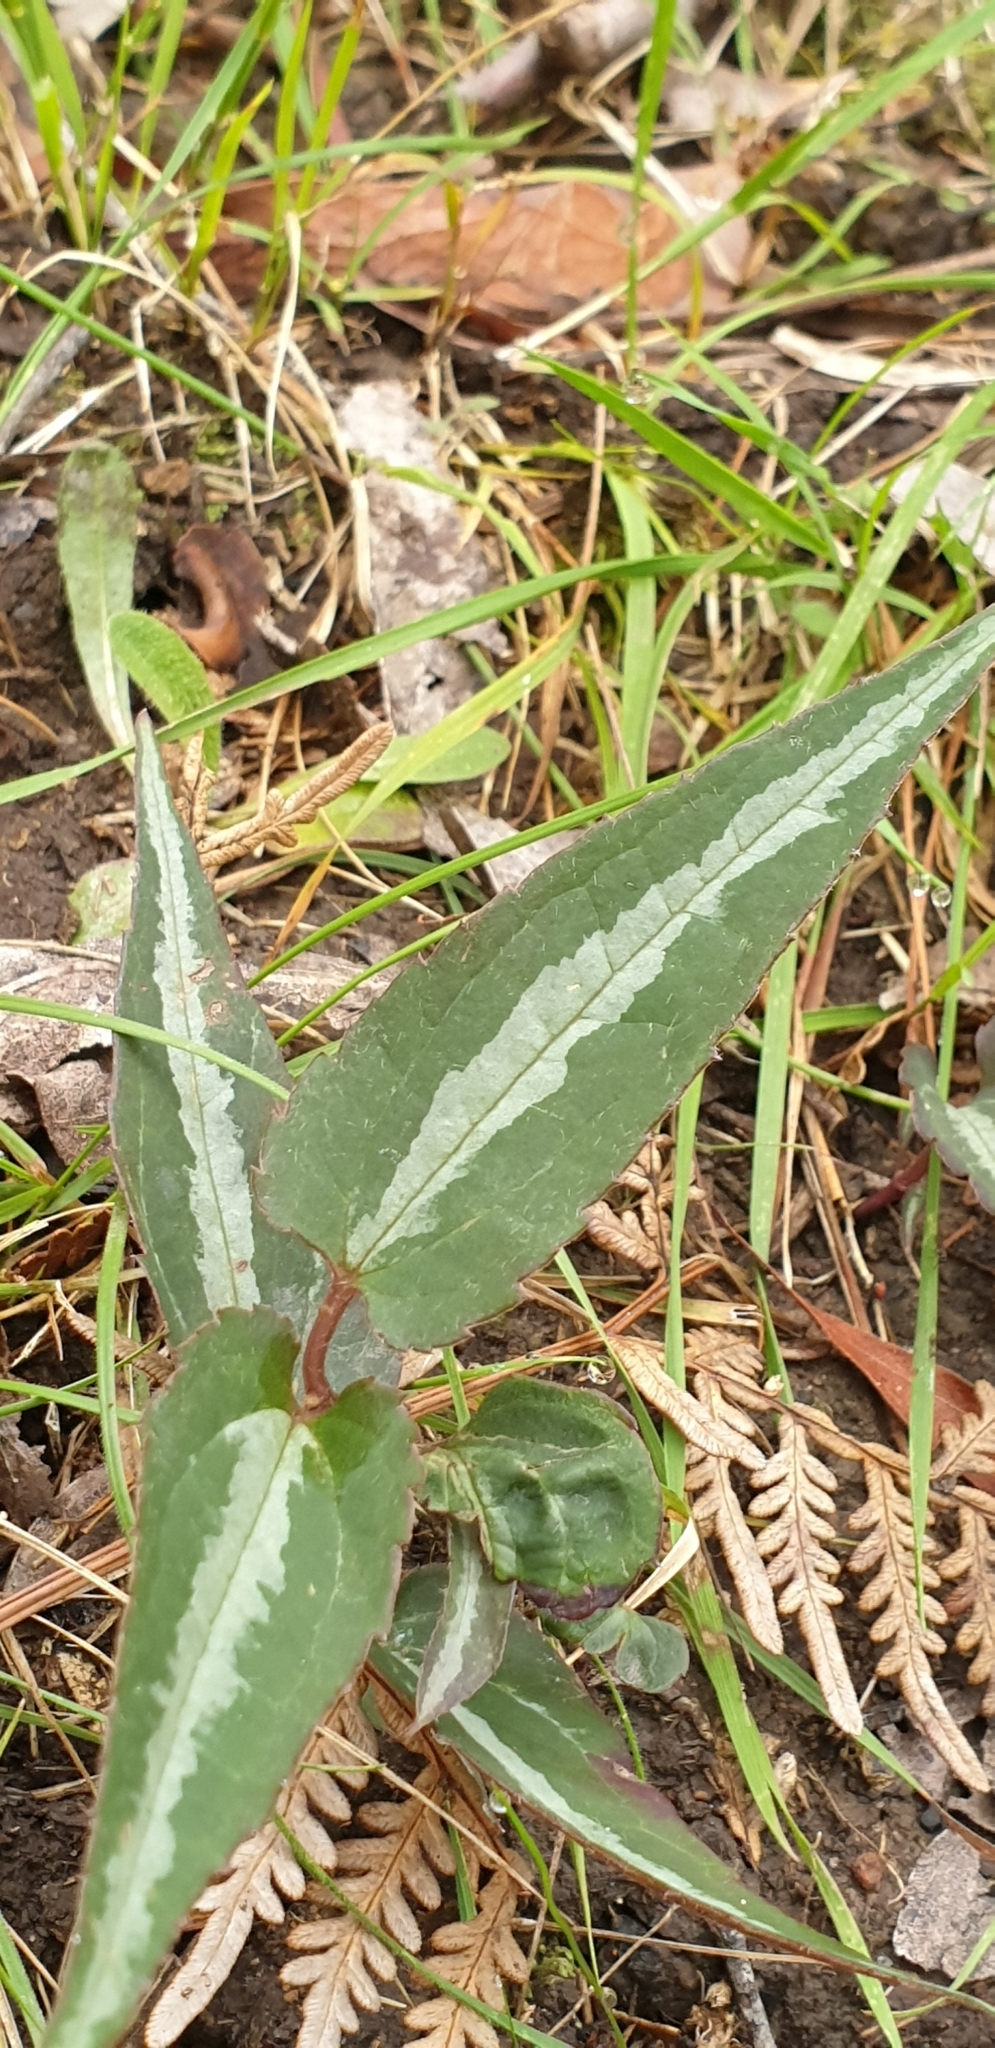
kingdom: Plantae
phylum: Tracheophyta
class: Magnoliopsida
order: Ranunculales
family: Ranunculaceae
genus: Clematis
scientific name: Clematis aristata
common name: Mountain clematis
